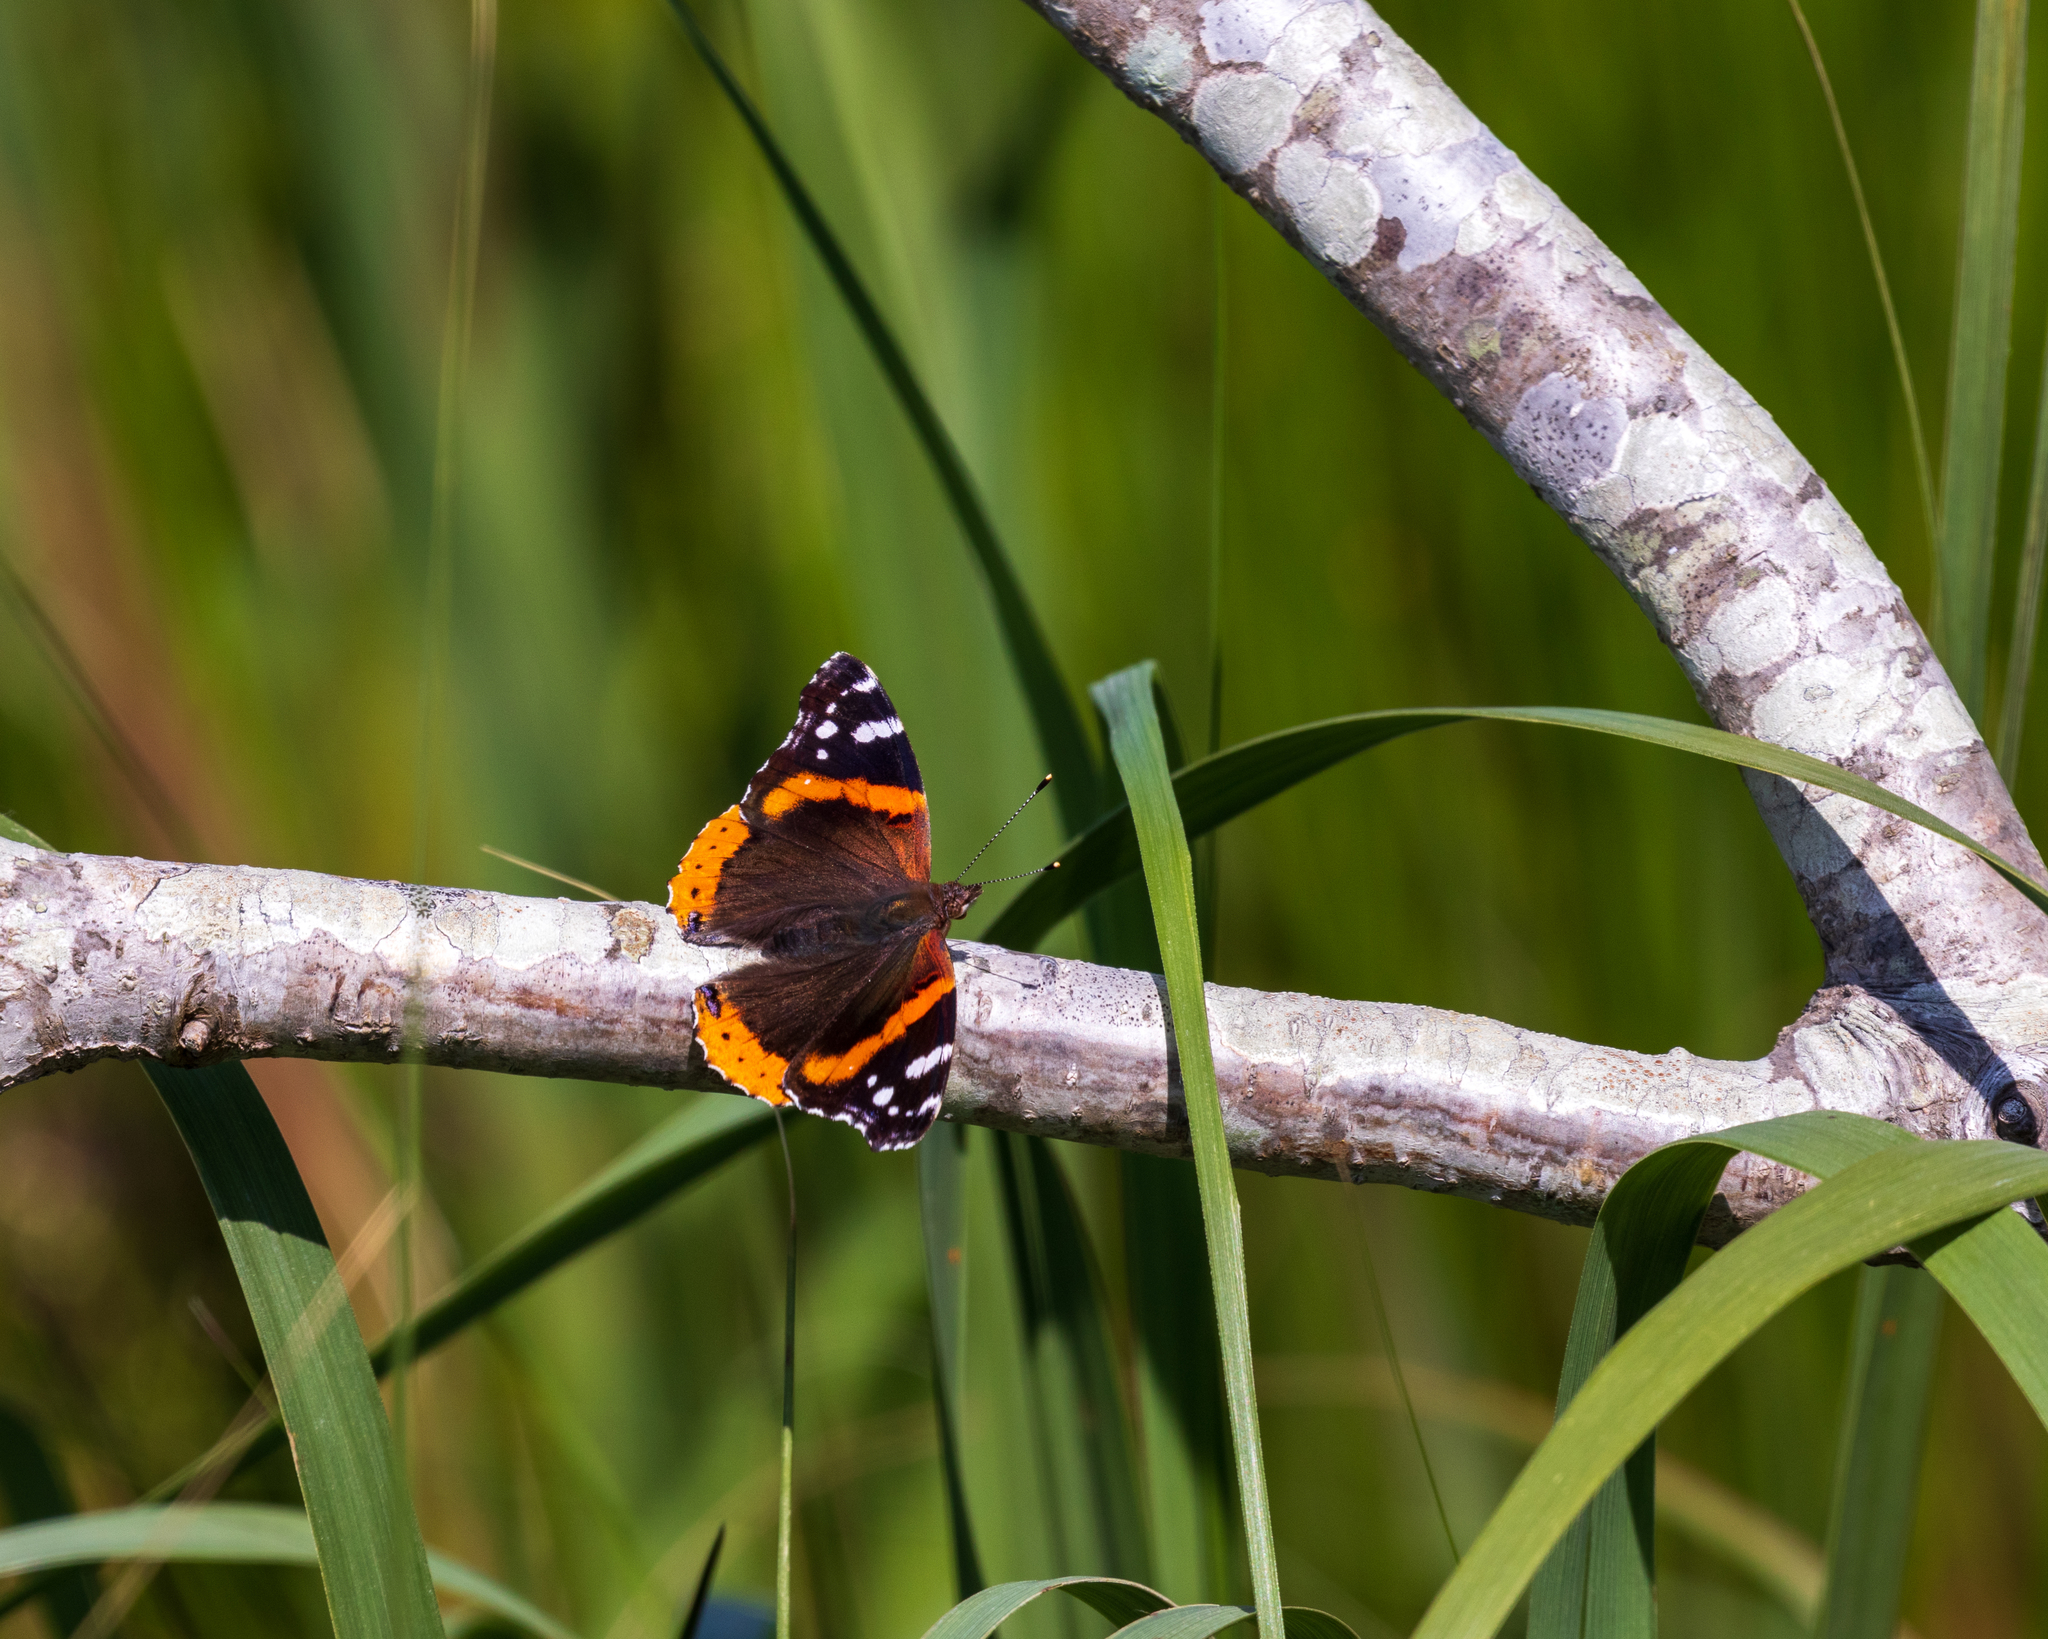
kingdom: Animalia
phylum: Arthropoda
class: Insecta
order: Lepidoptera
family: Nymphalidae
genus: Vanessa
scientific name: Vanessa atalanta
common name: Red admiral
